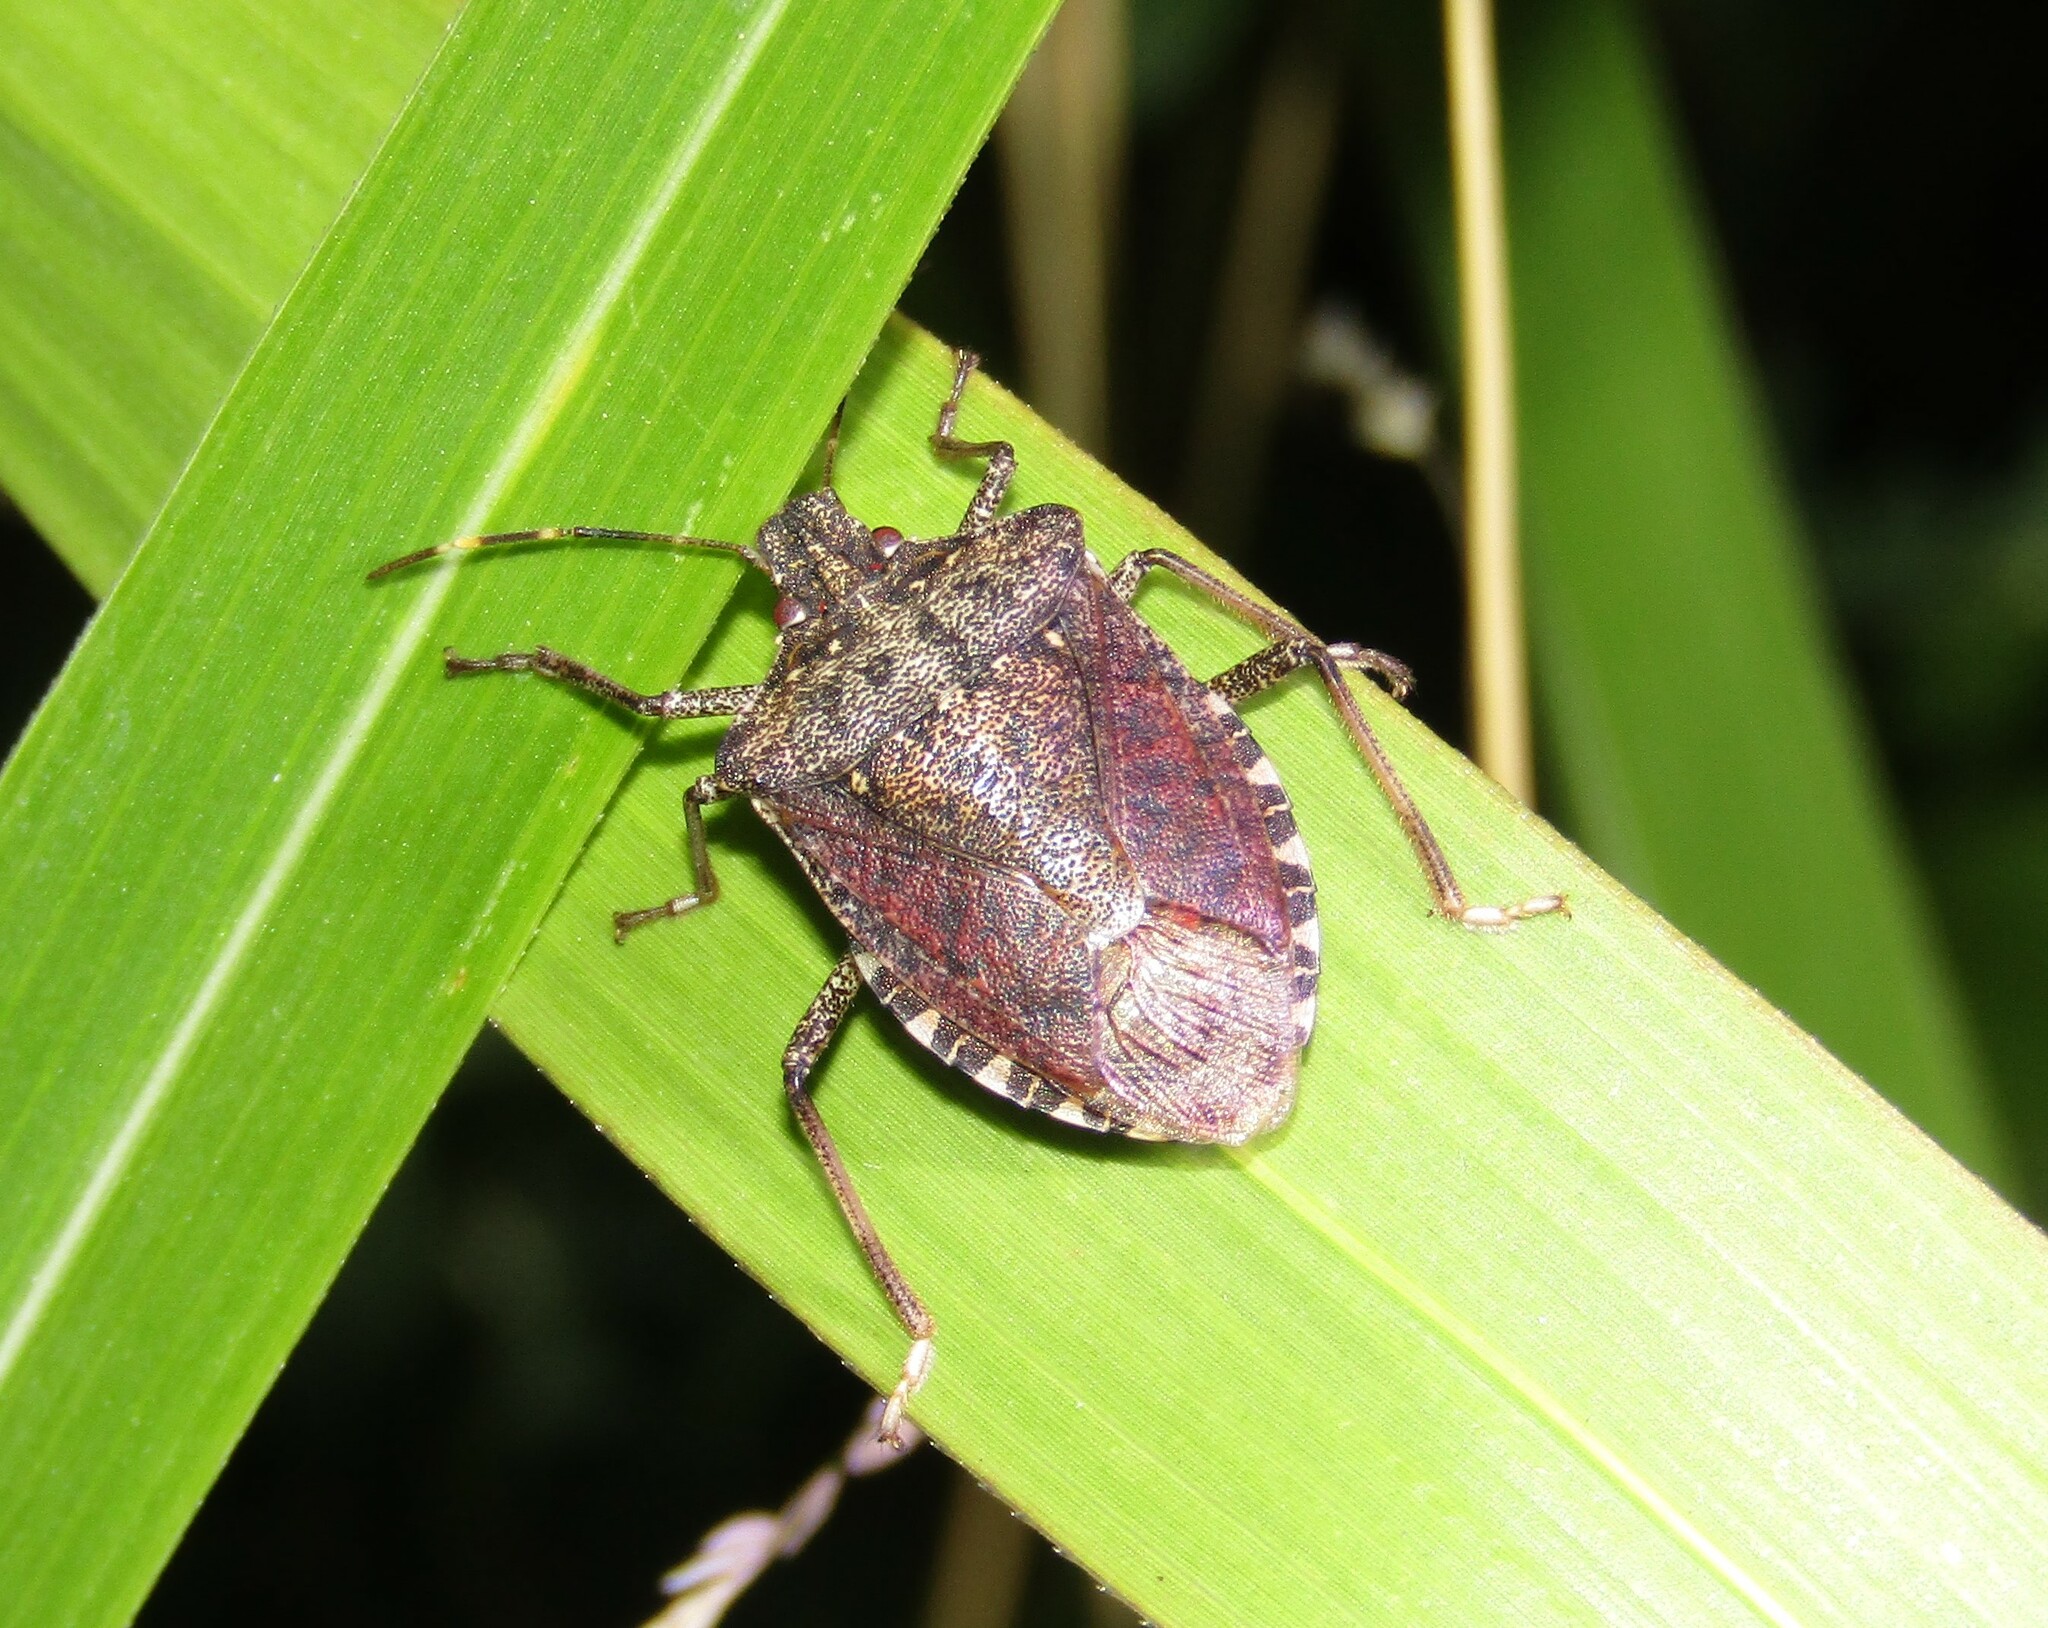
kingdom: Animalia
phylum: Arthropoda
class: Insecta
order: Hemiptera
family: Pentatomidae
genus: Halyomorpha
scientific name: Halyomorpha halys
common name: Brown marmorated stink bug
